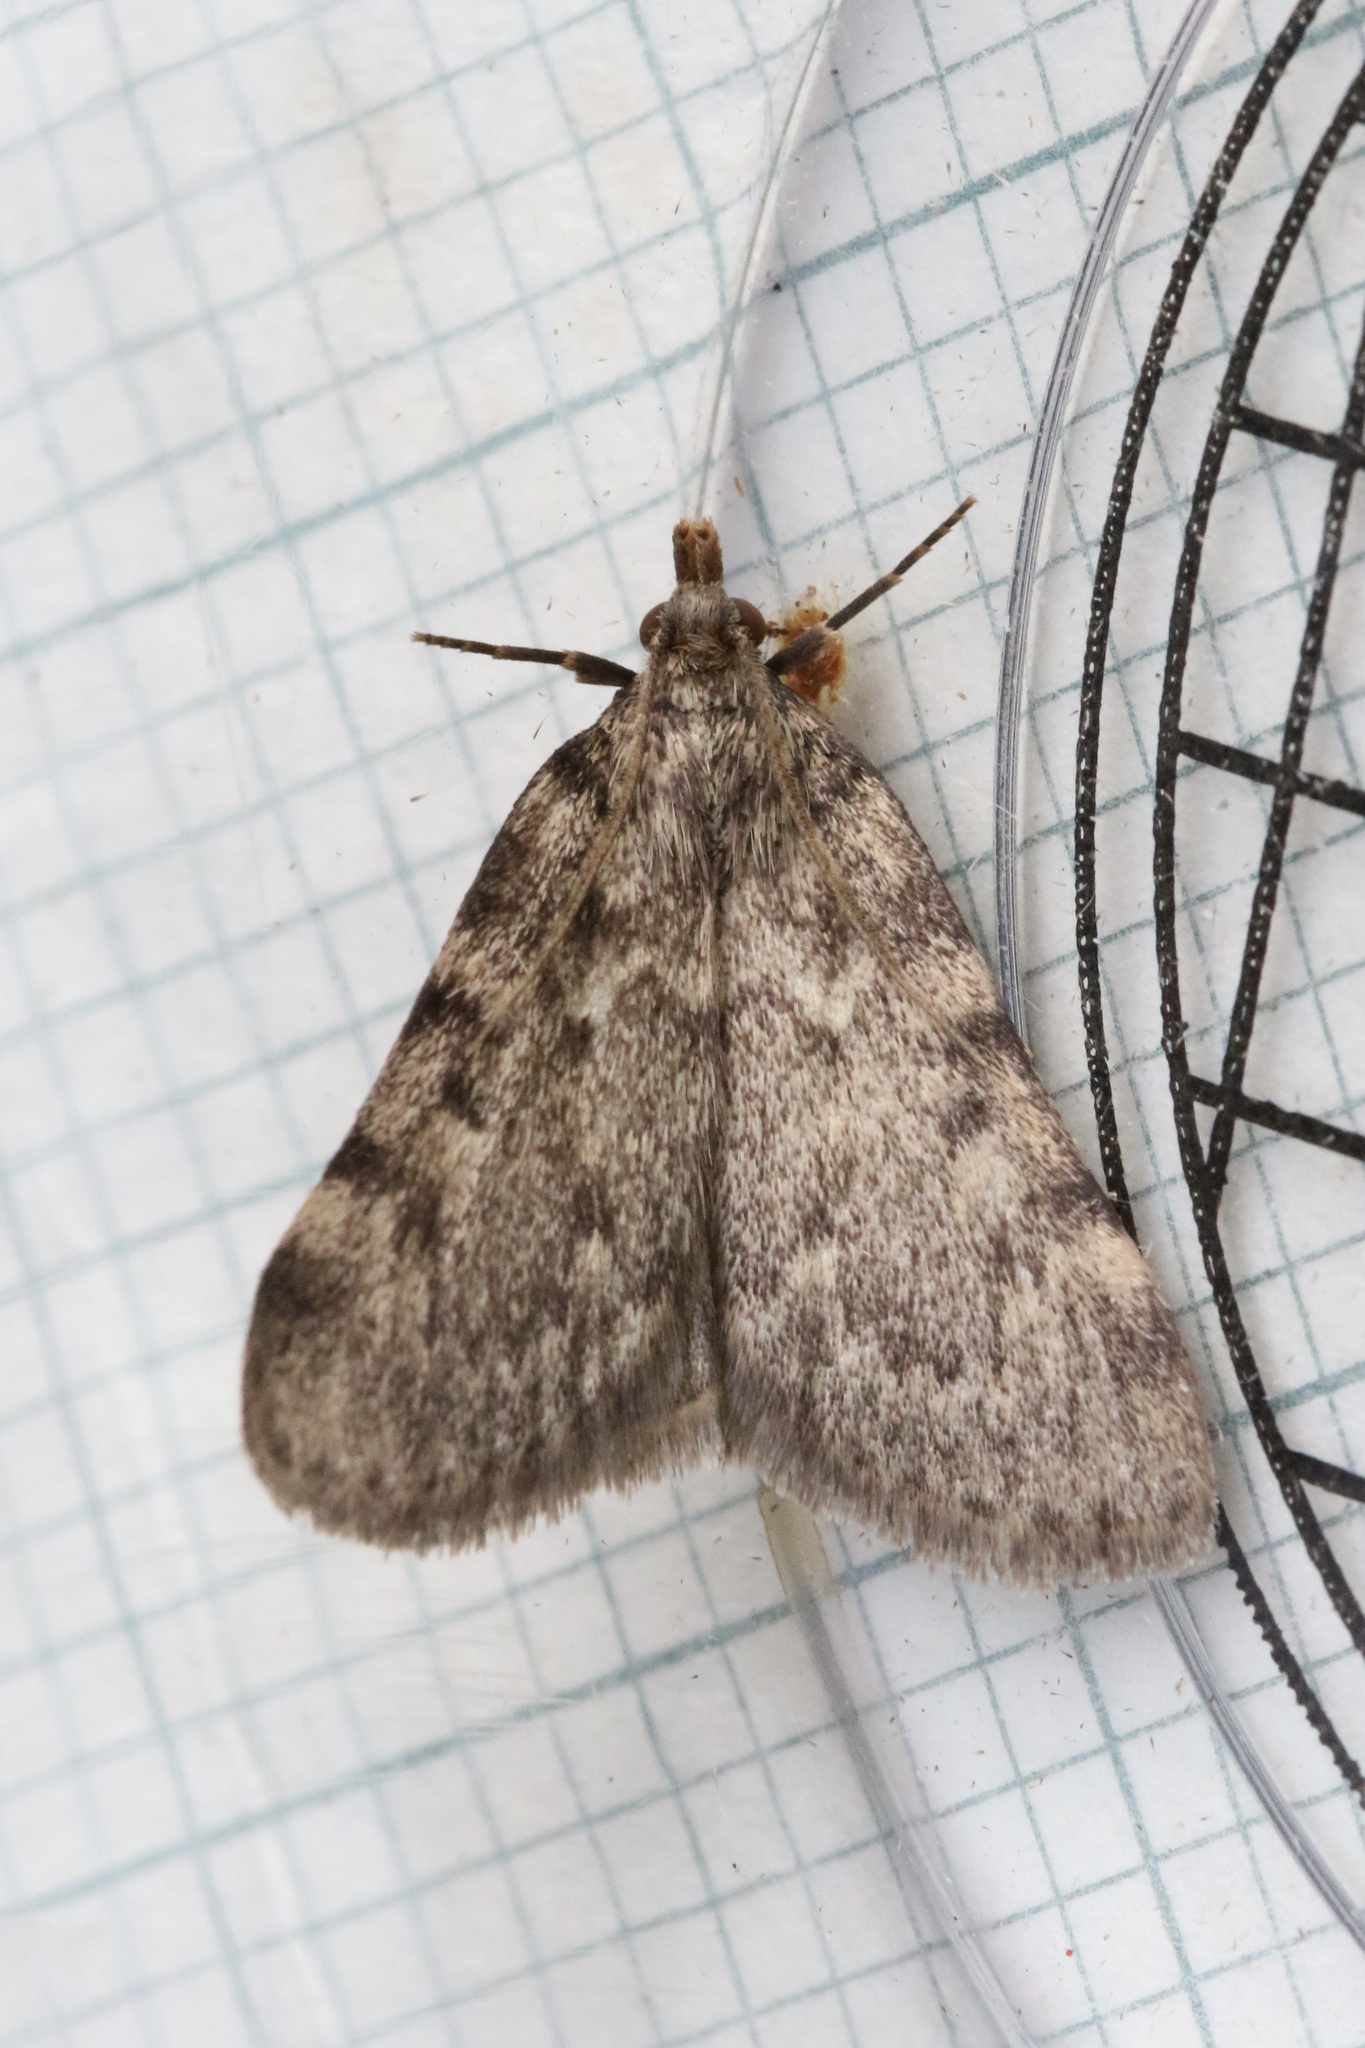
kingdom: Animalia
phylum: Arthropoda
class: Insecta
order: Lepidoptera
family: Pyralidae
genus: Aglossa
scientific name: Aglossa pinguinalis
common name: Large tabby
